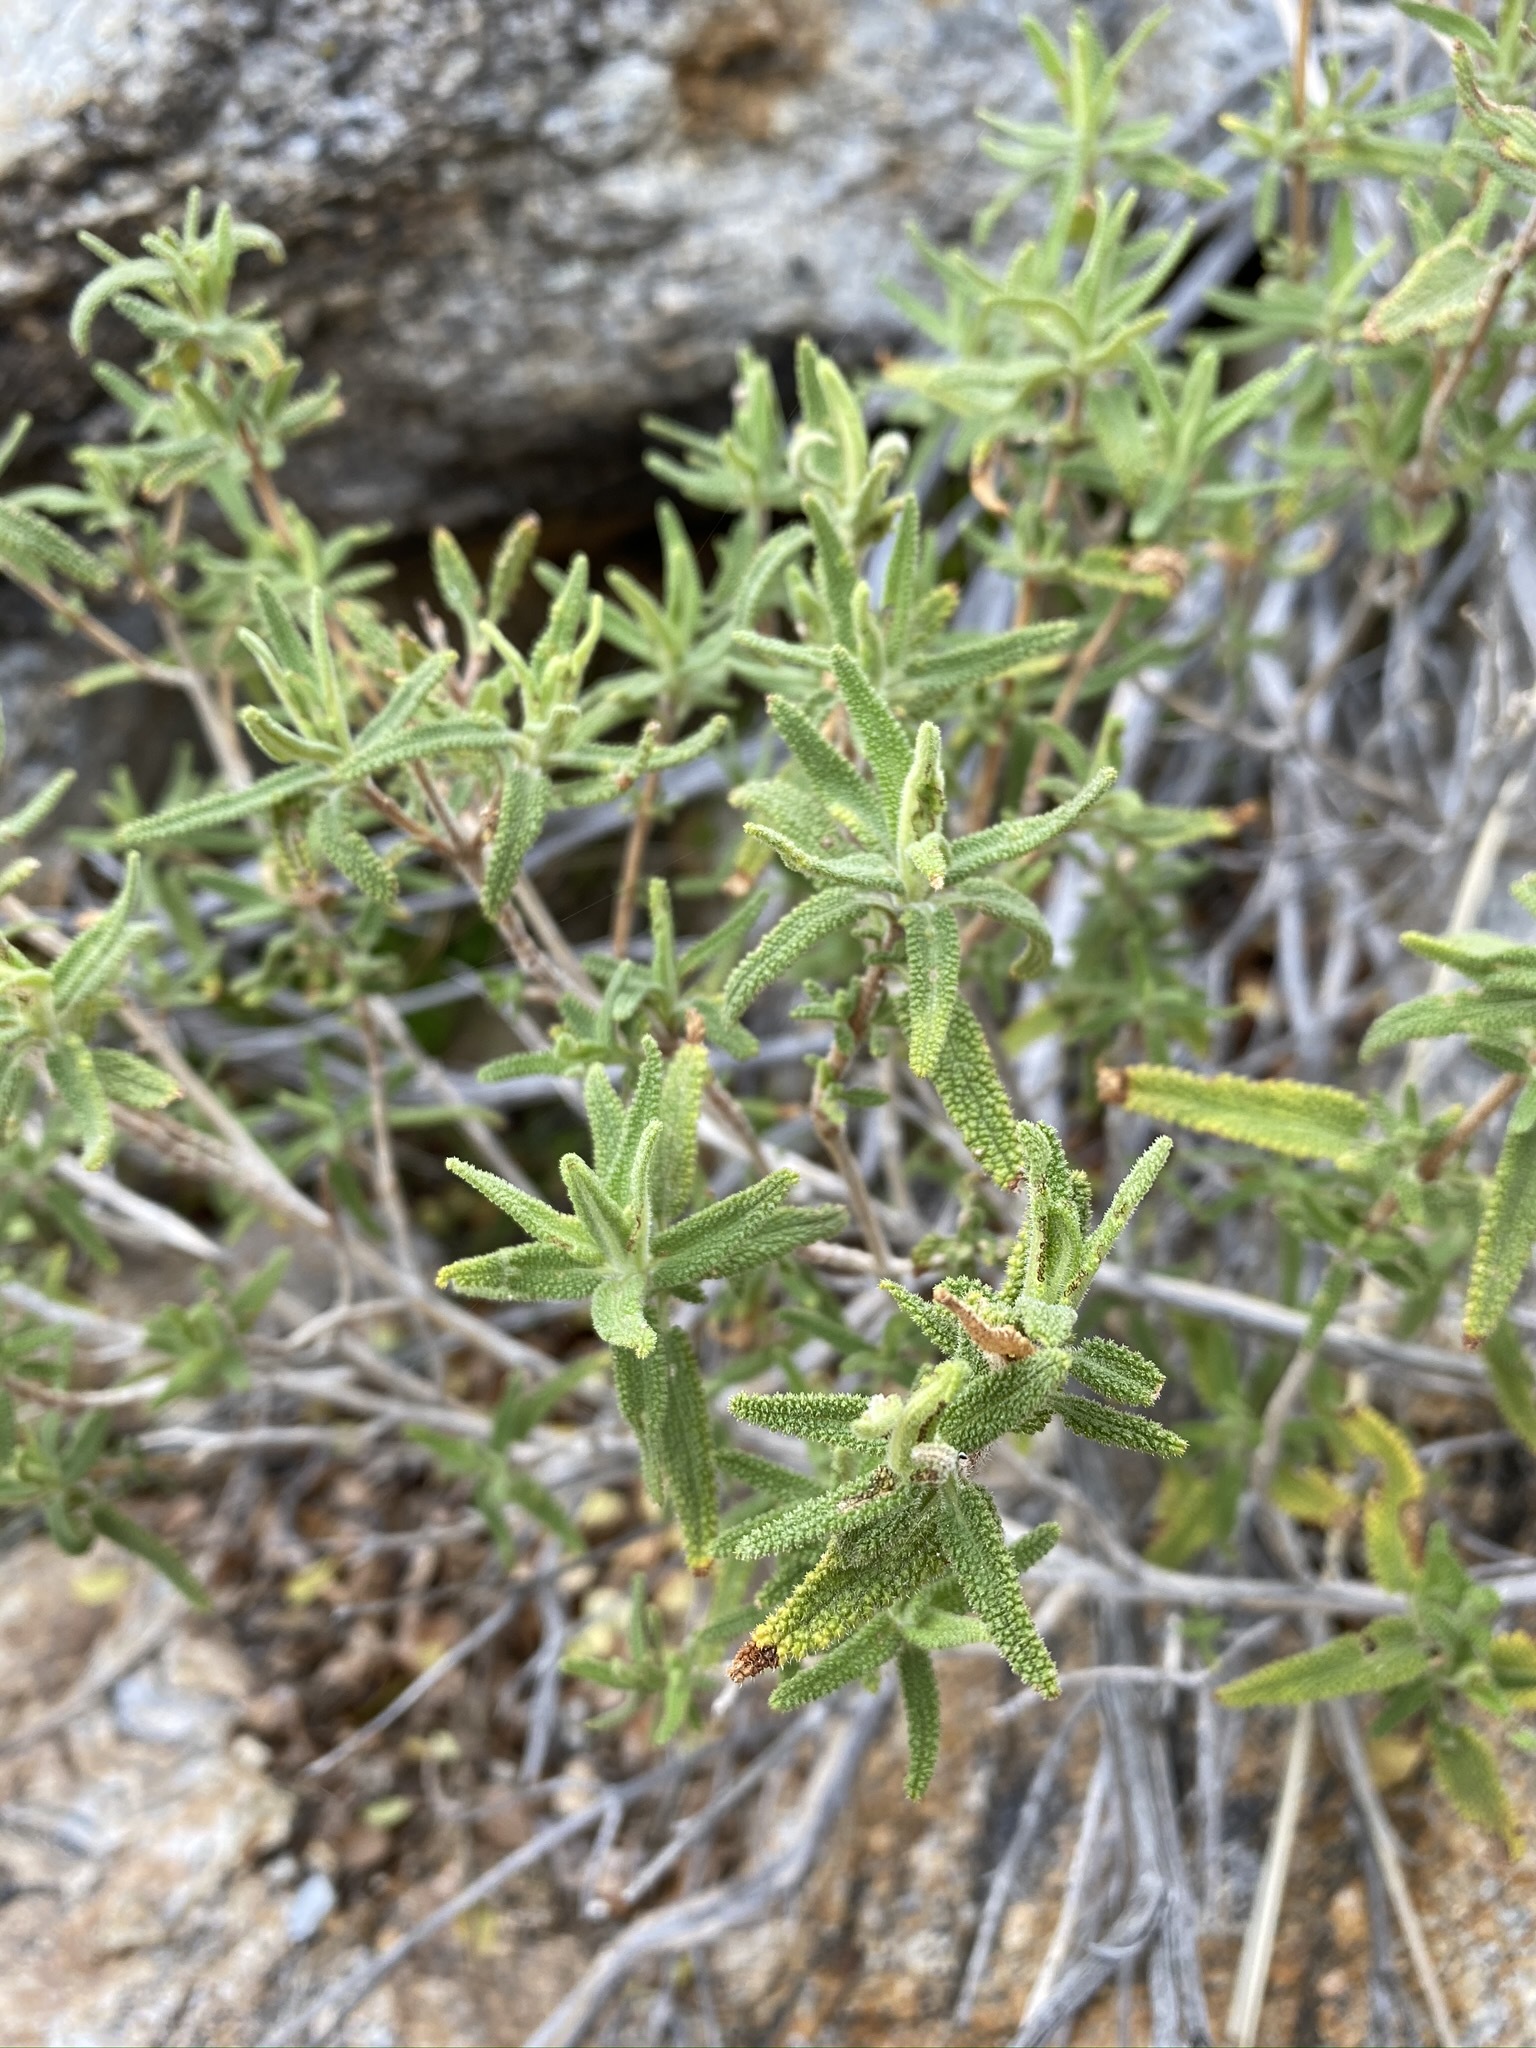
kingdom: Plantae
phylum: Tracheophyta
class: Magnoliopsida
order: Lamiales
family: Lamiaceae
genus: Salvia
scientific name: Salvia eremostachya
